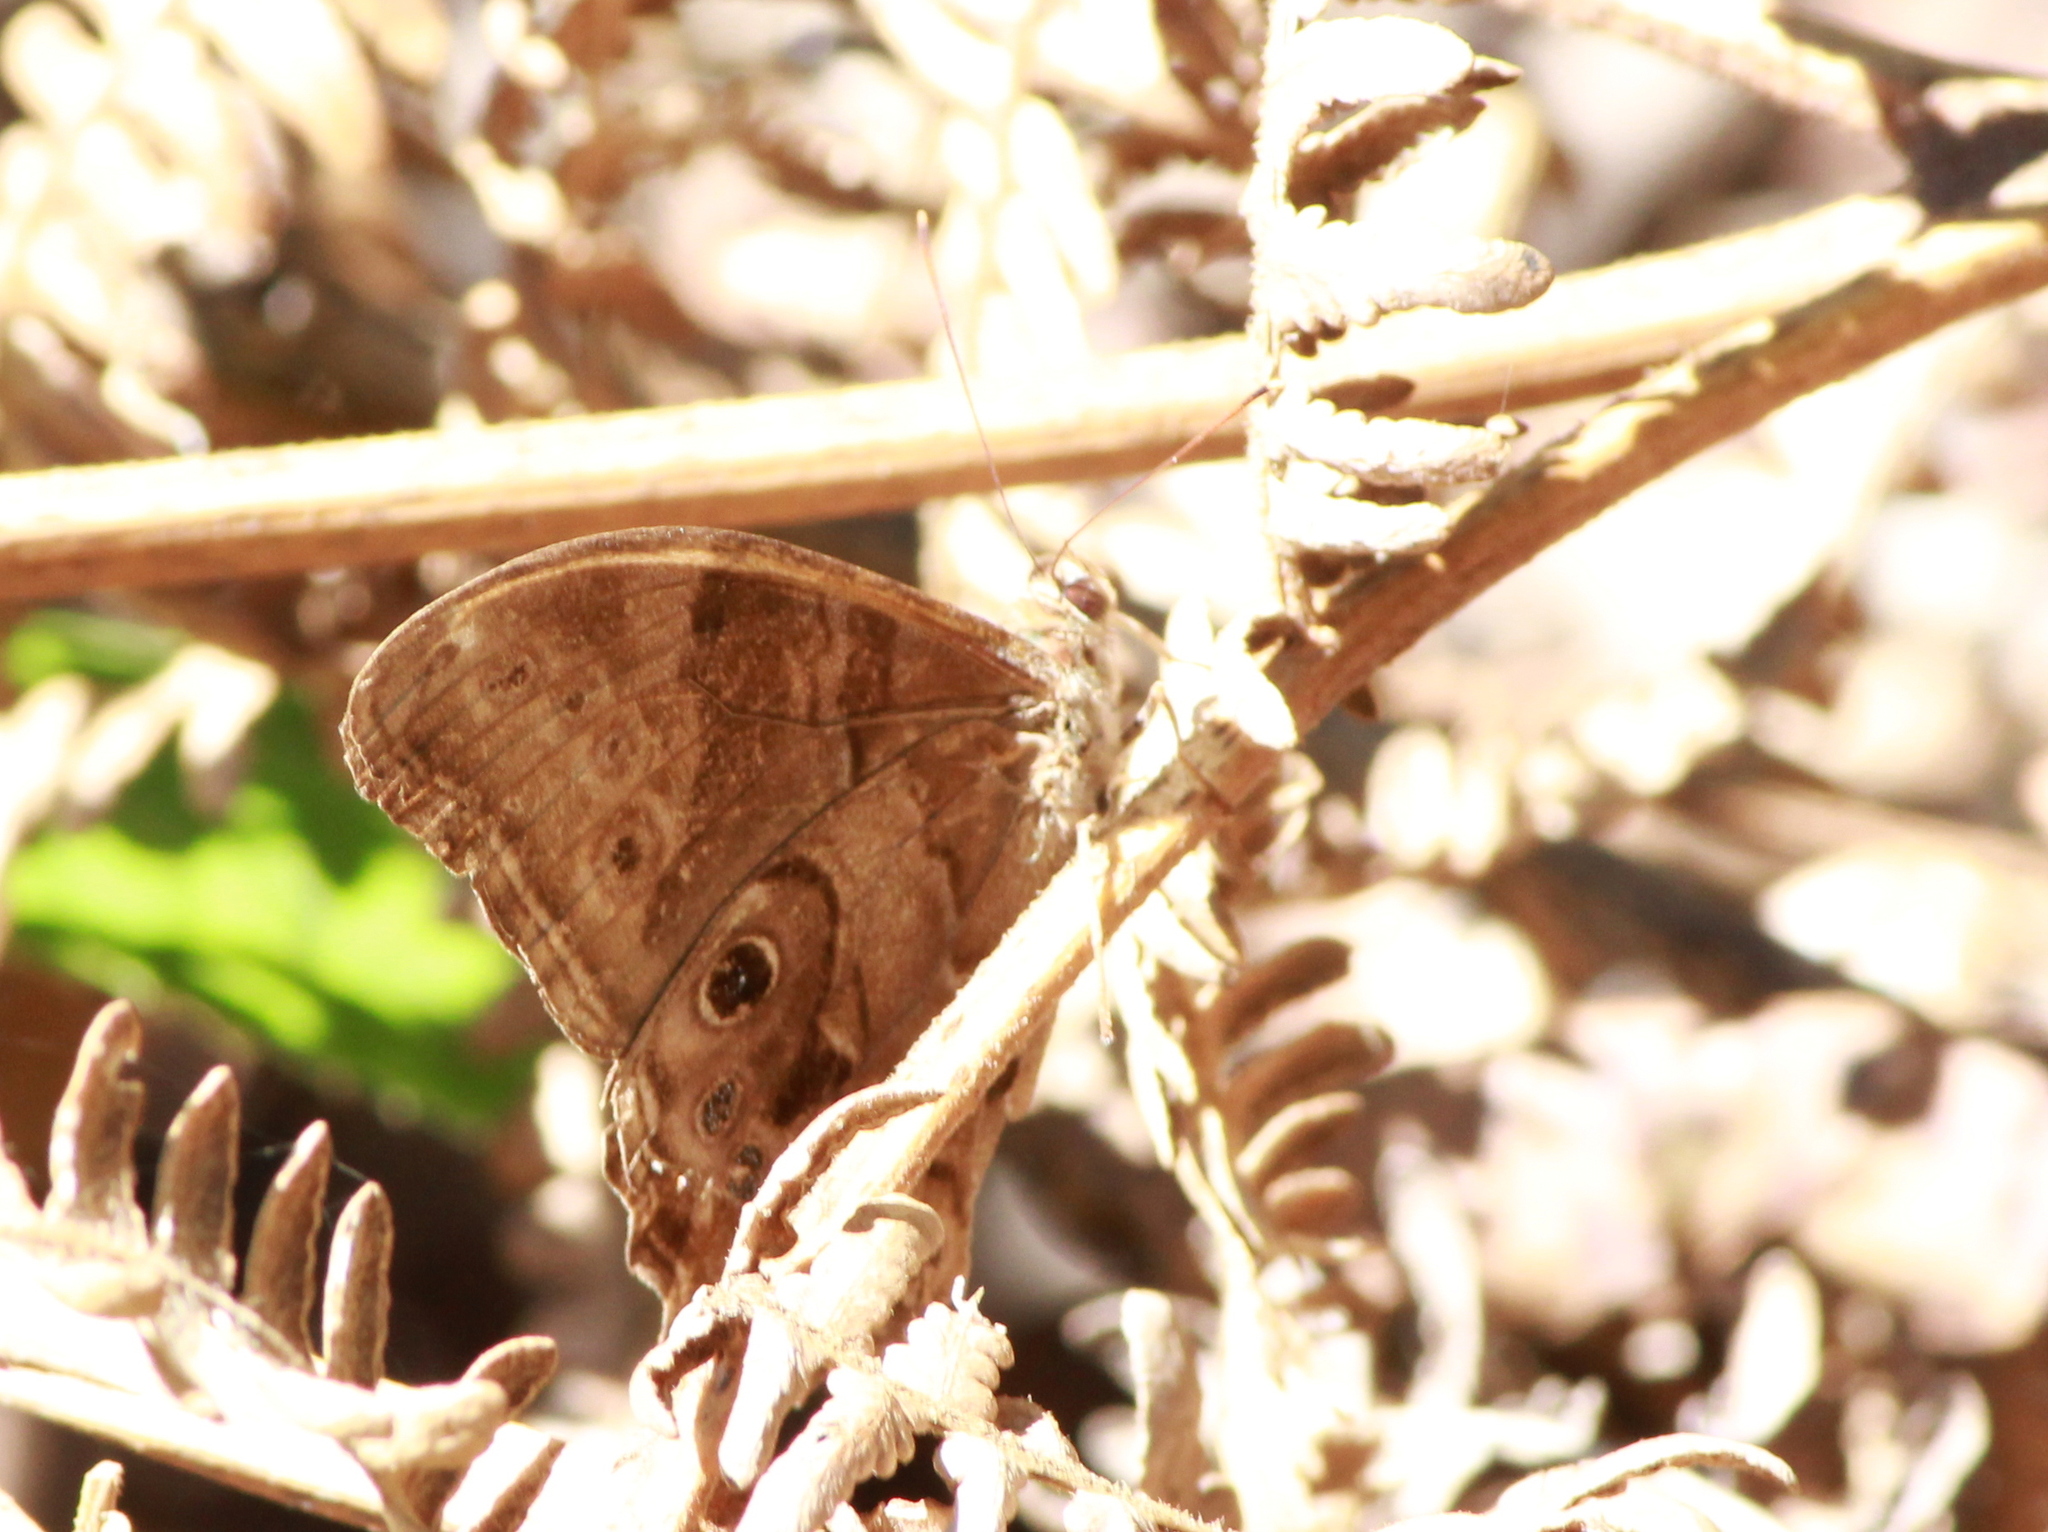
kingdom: Animalia
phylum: Arthropoda
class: Insecta
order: Lepidoptera
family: Nymphalidae
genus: Lethe
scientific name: Lethe drypetis
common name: Tamil treebrown
